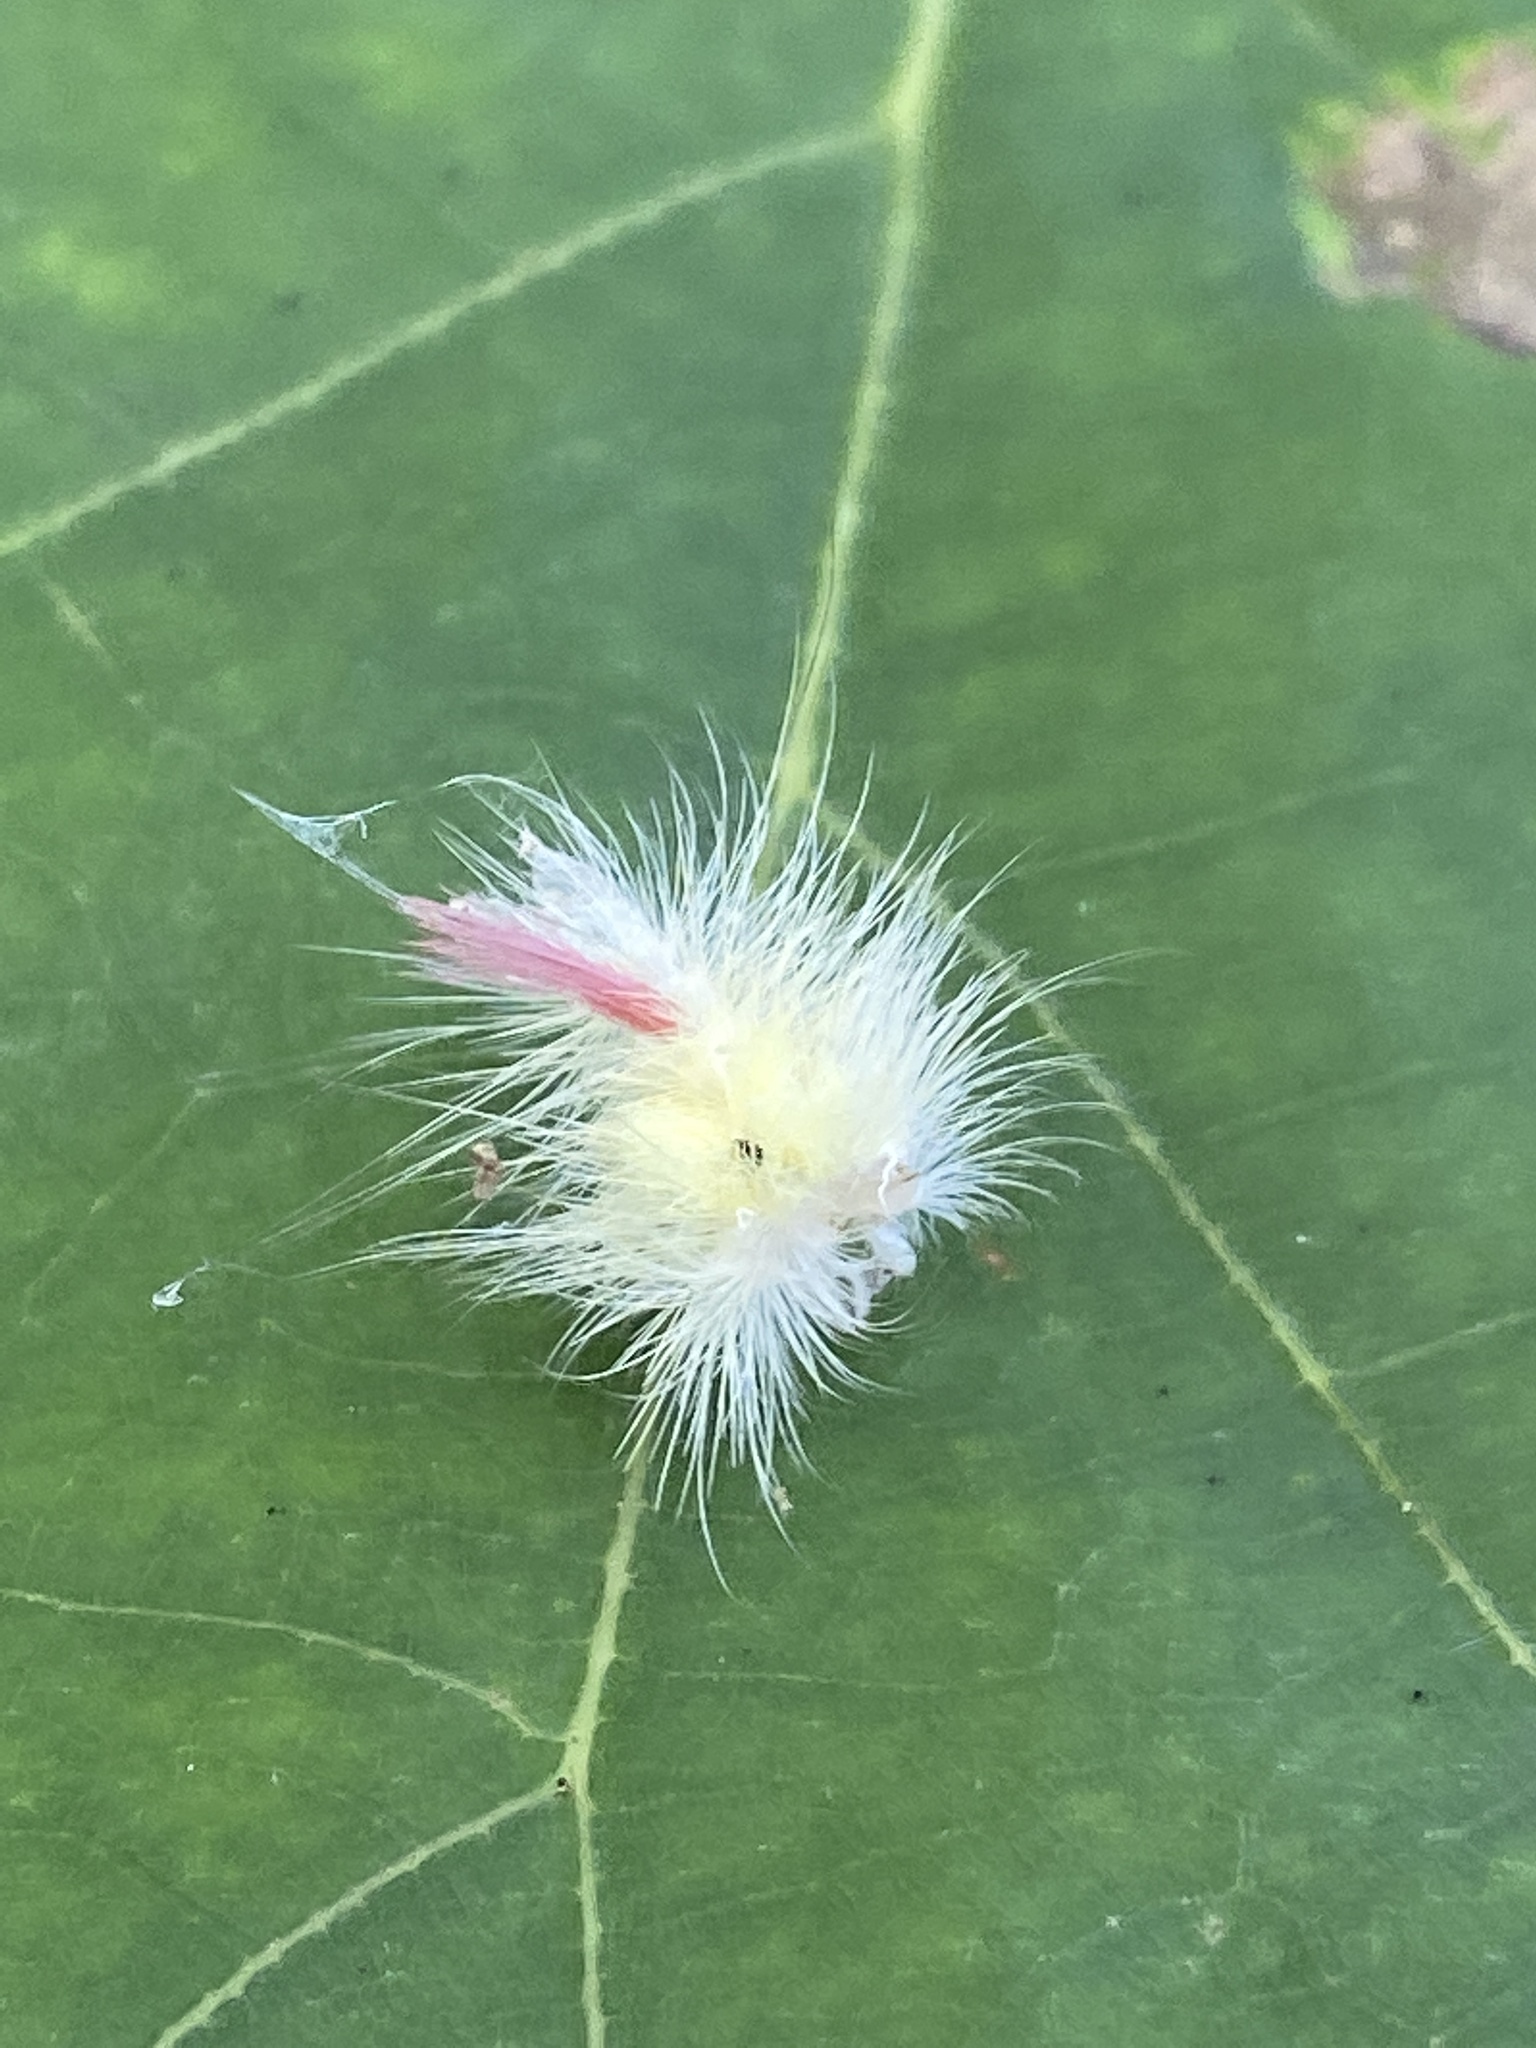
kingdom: Animalia
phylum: Arthropoda
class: Insecta
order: Lepidoptera
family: Erebidae
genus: Calliteara
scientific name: Calliteara pudibunda
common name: Pale tussock
